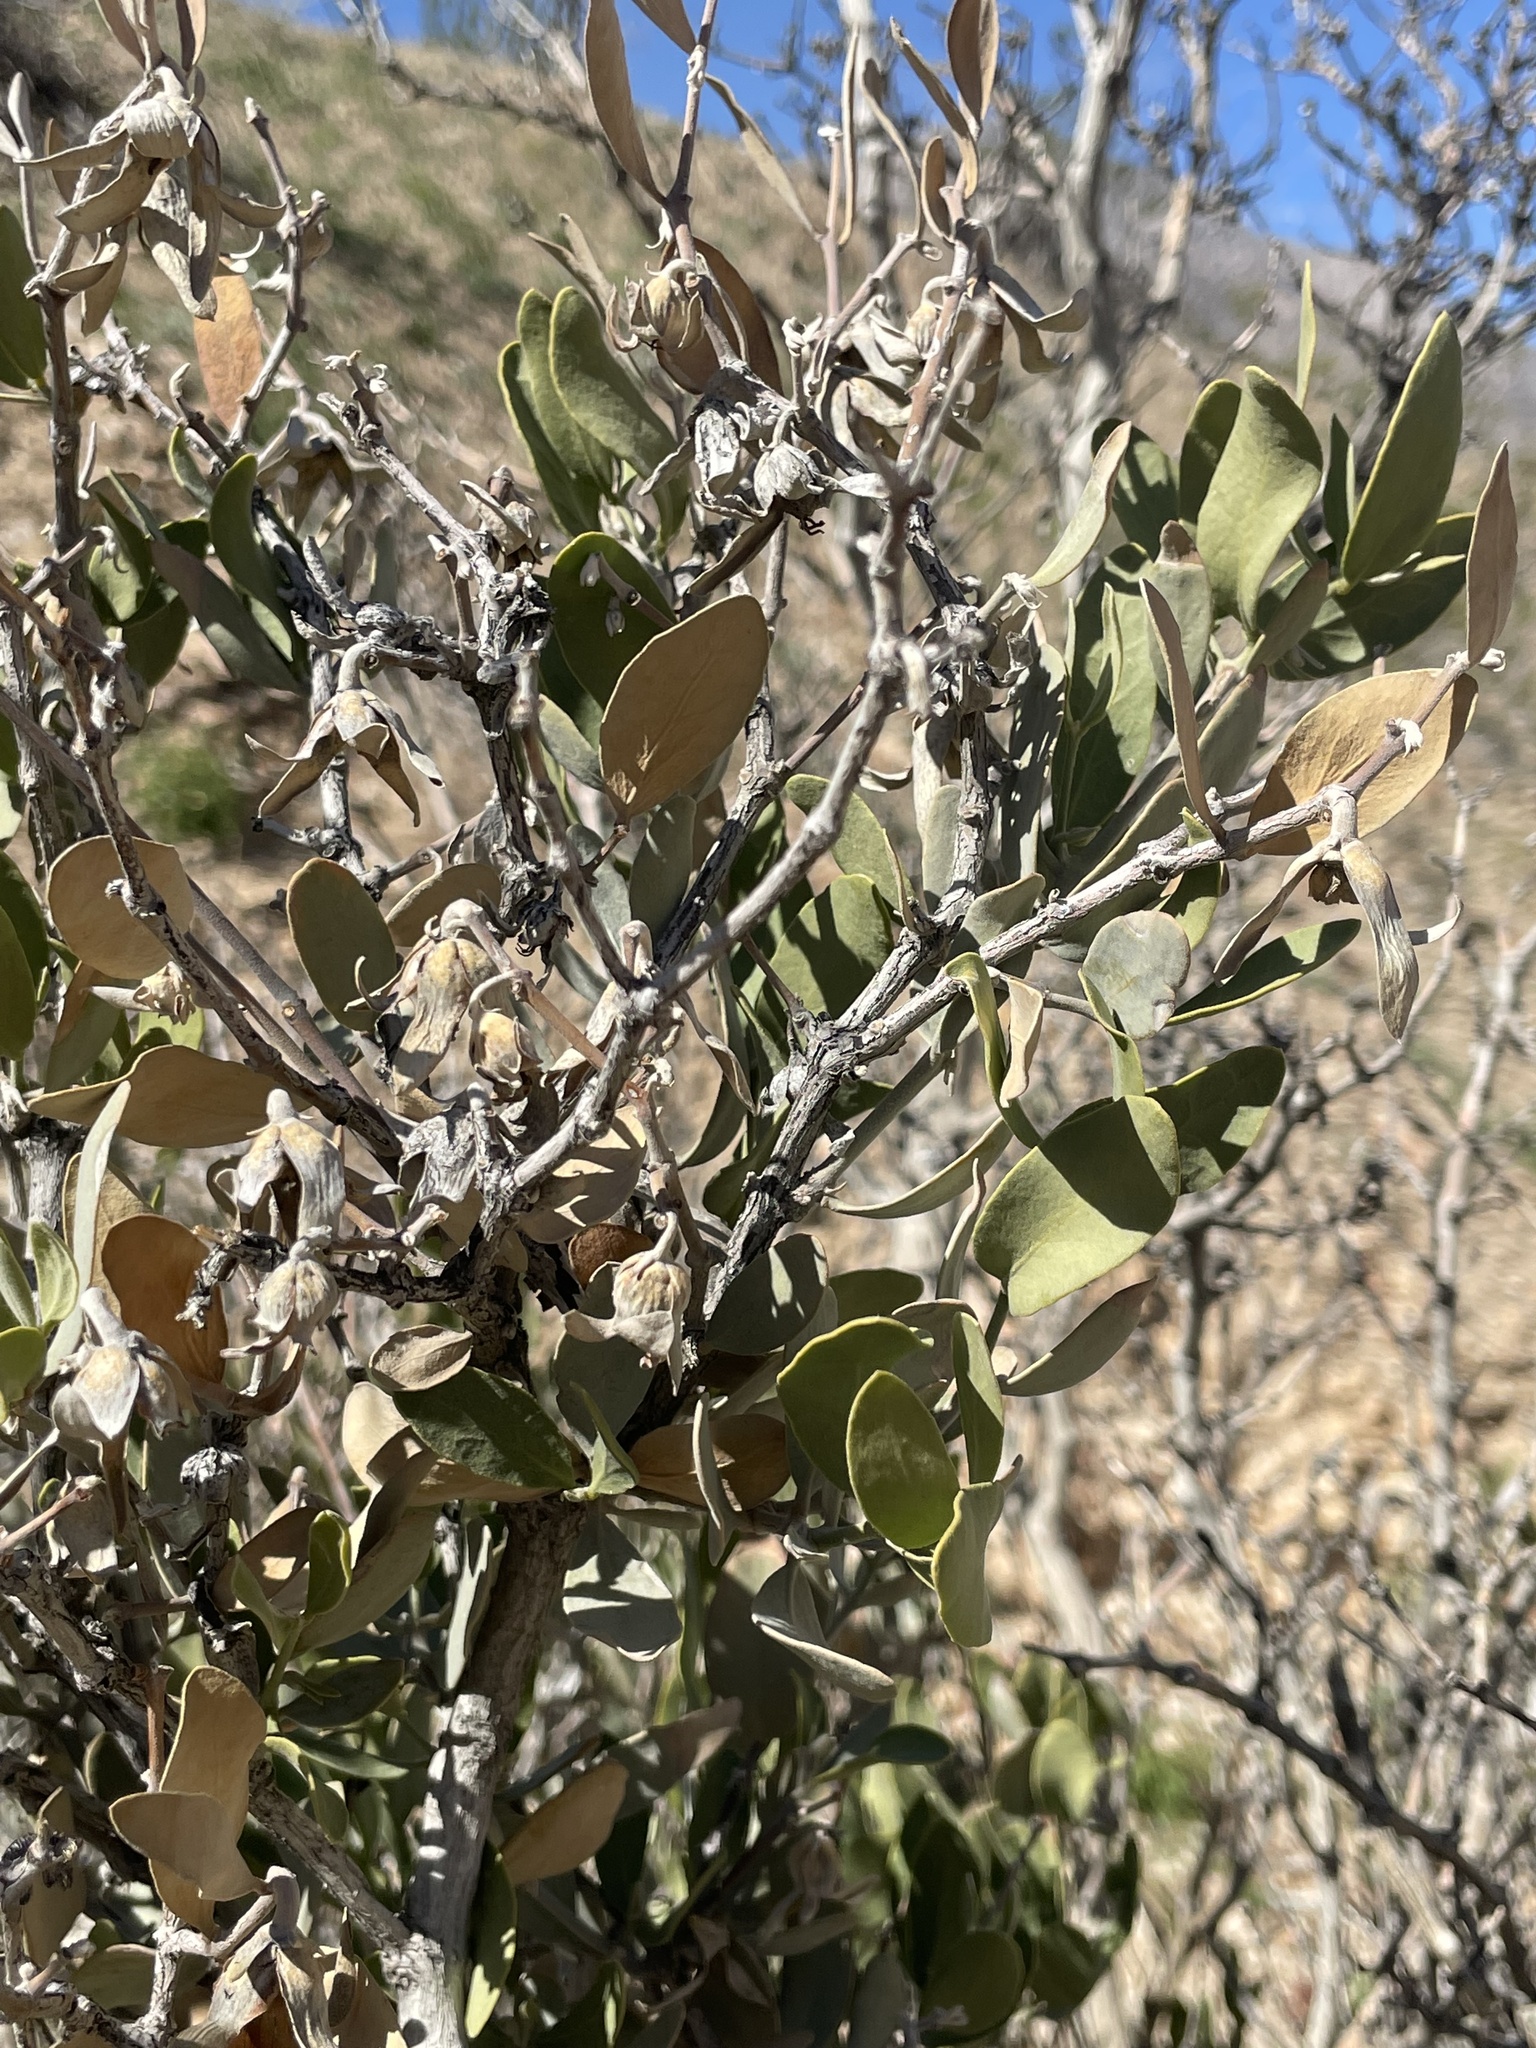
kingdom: Plantae
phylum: Tracheophyta
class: Magnoliopsida
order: Caryophyllales
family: Simmondsiaceae
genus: Simmondsia
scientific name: Simmondsia chinensis
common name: Jojoba
